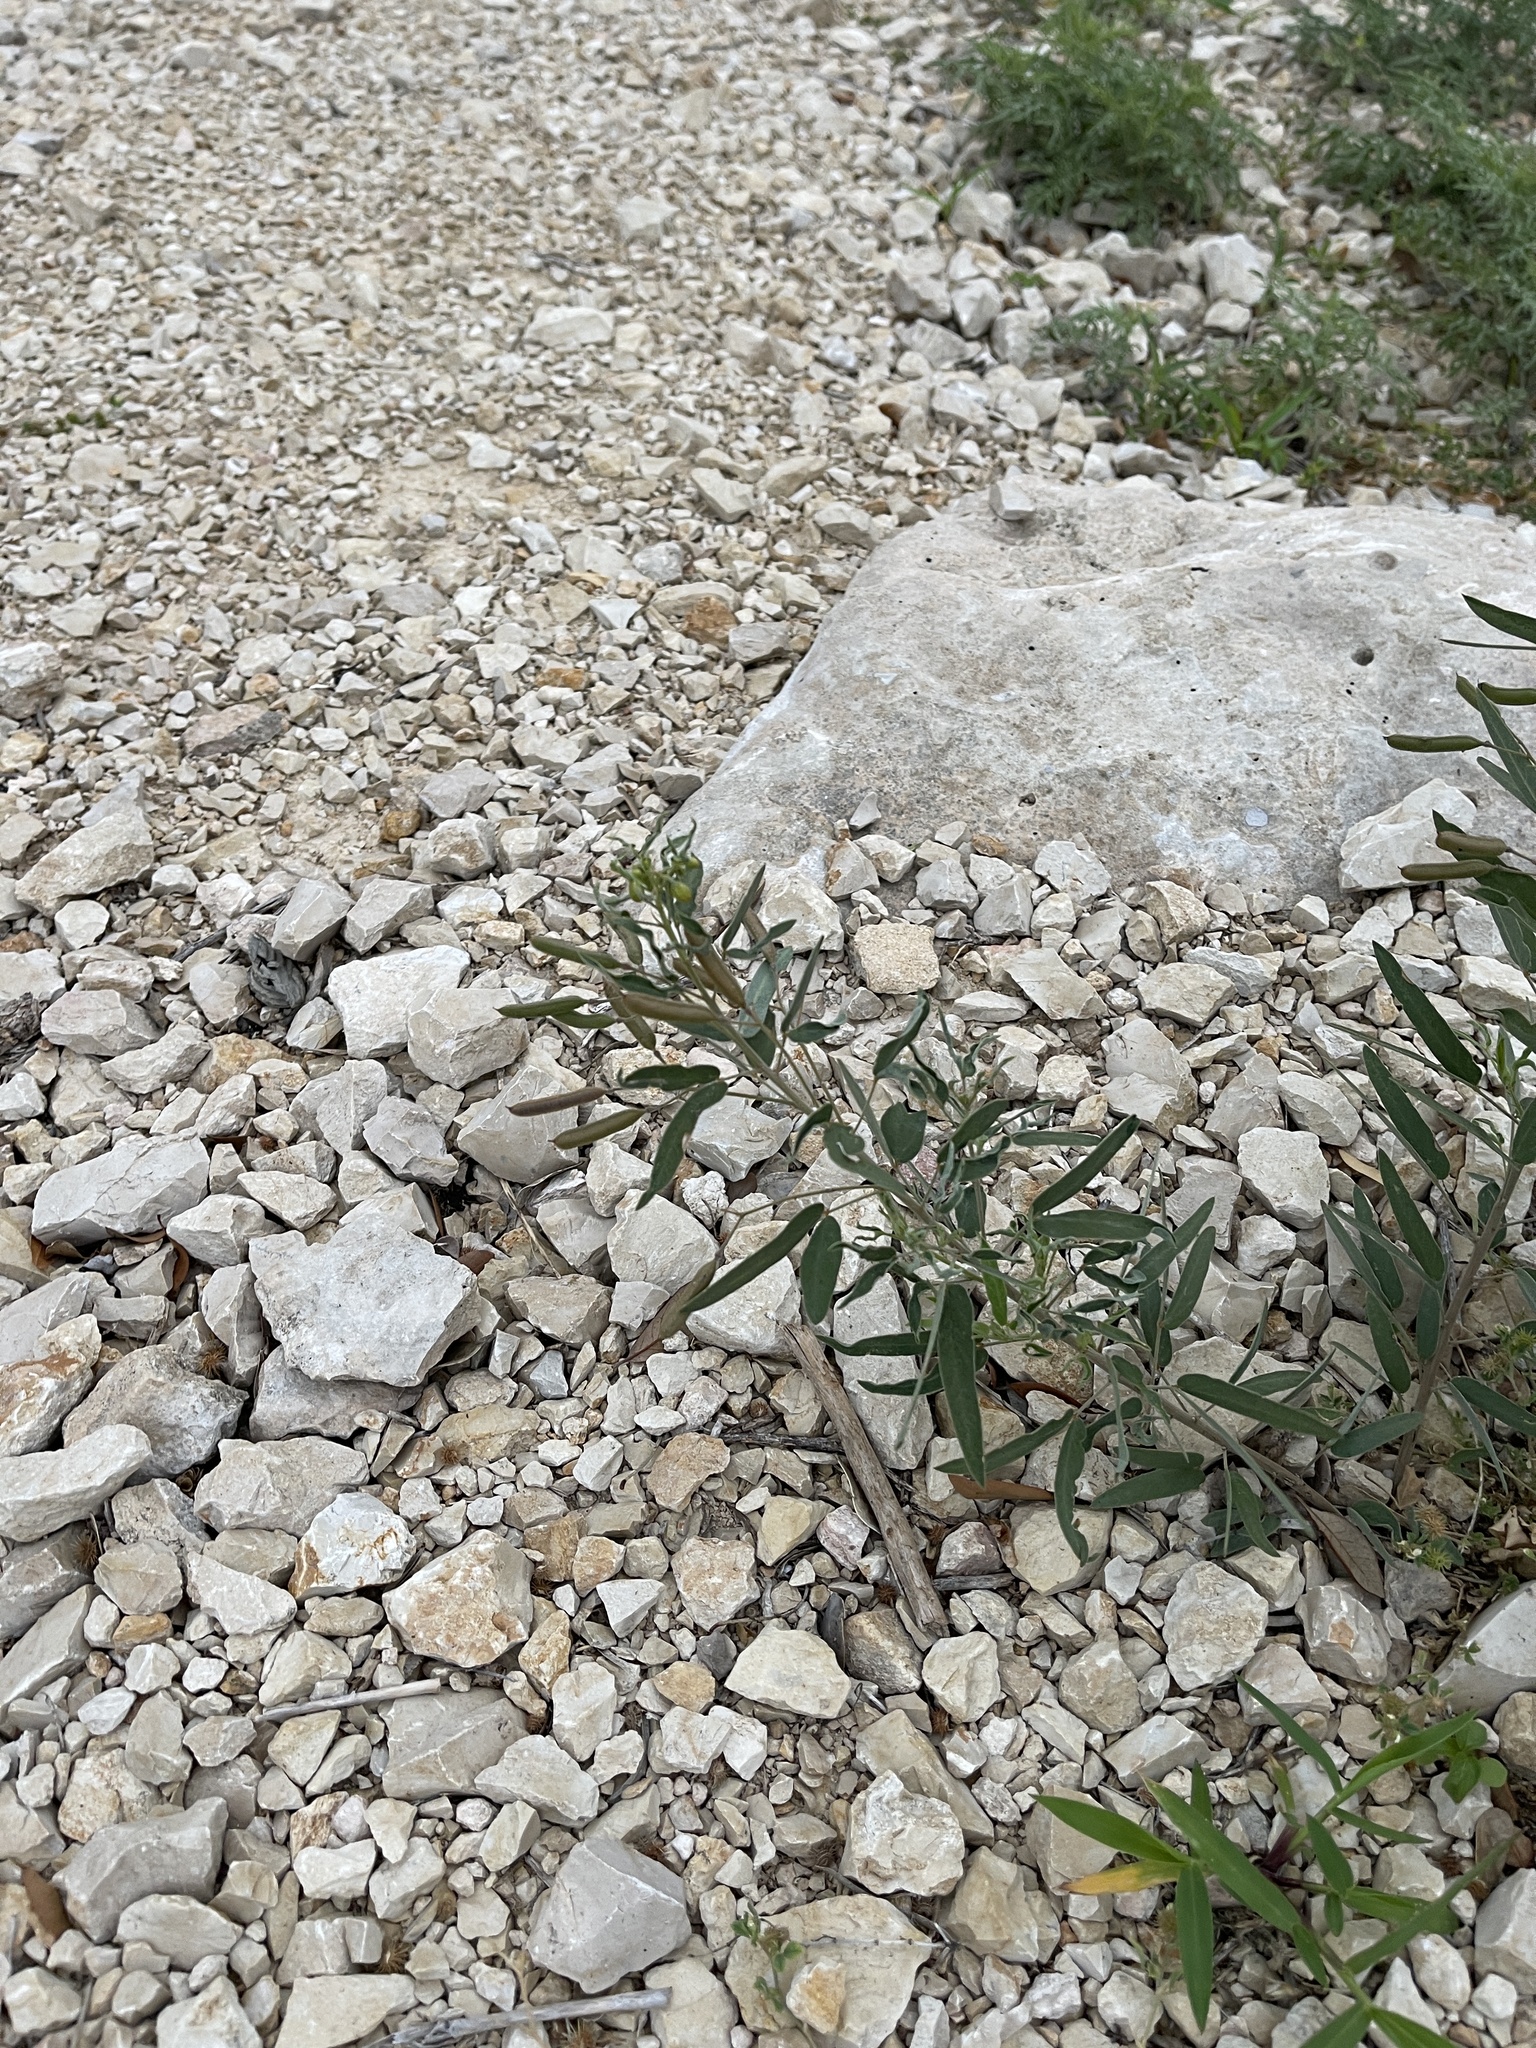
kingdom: Plantae
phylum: Tracheophyta
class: Magnoliopsida
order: Fabales
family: Fabaceae
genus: Senna
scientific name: Senna roemeriana
